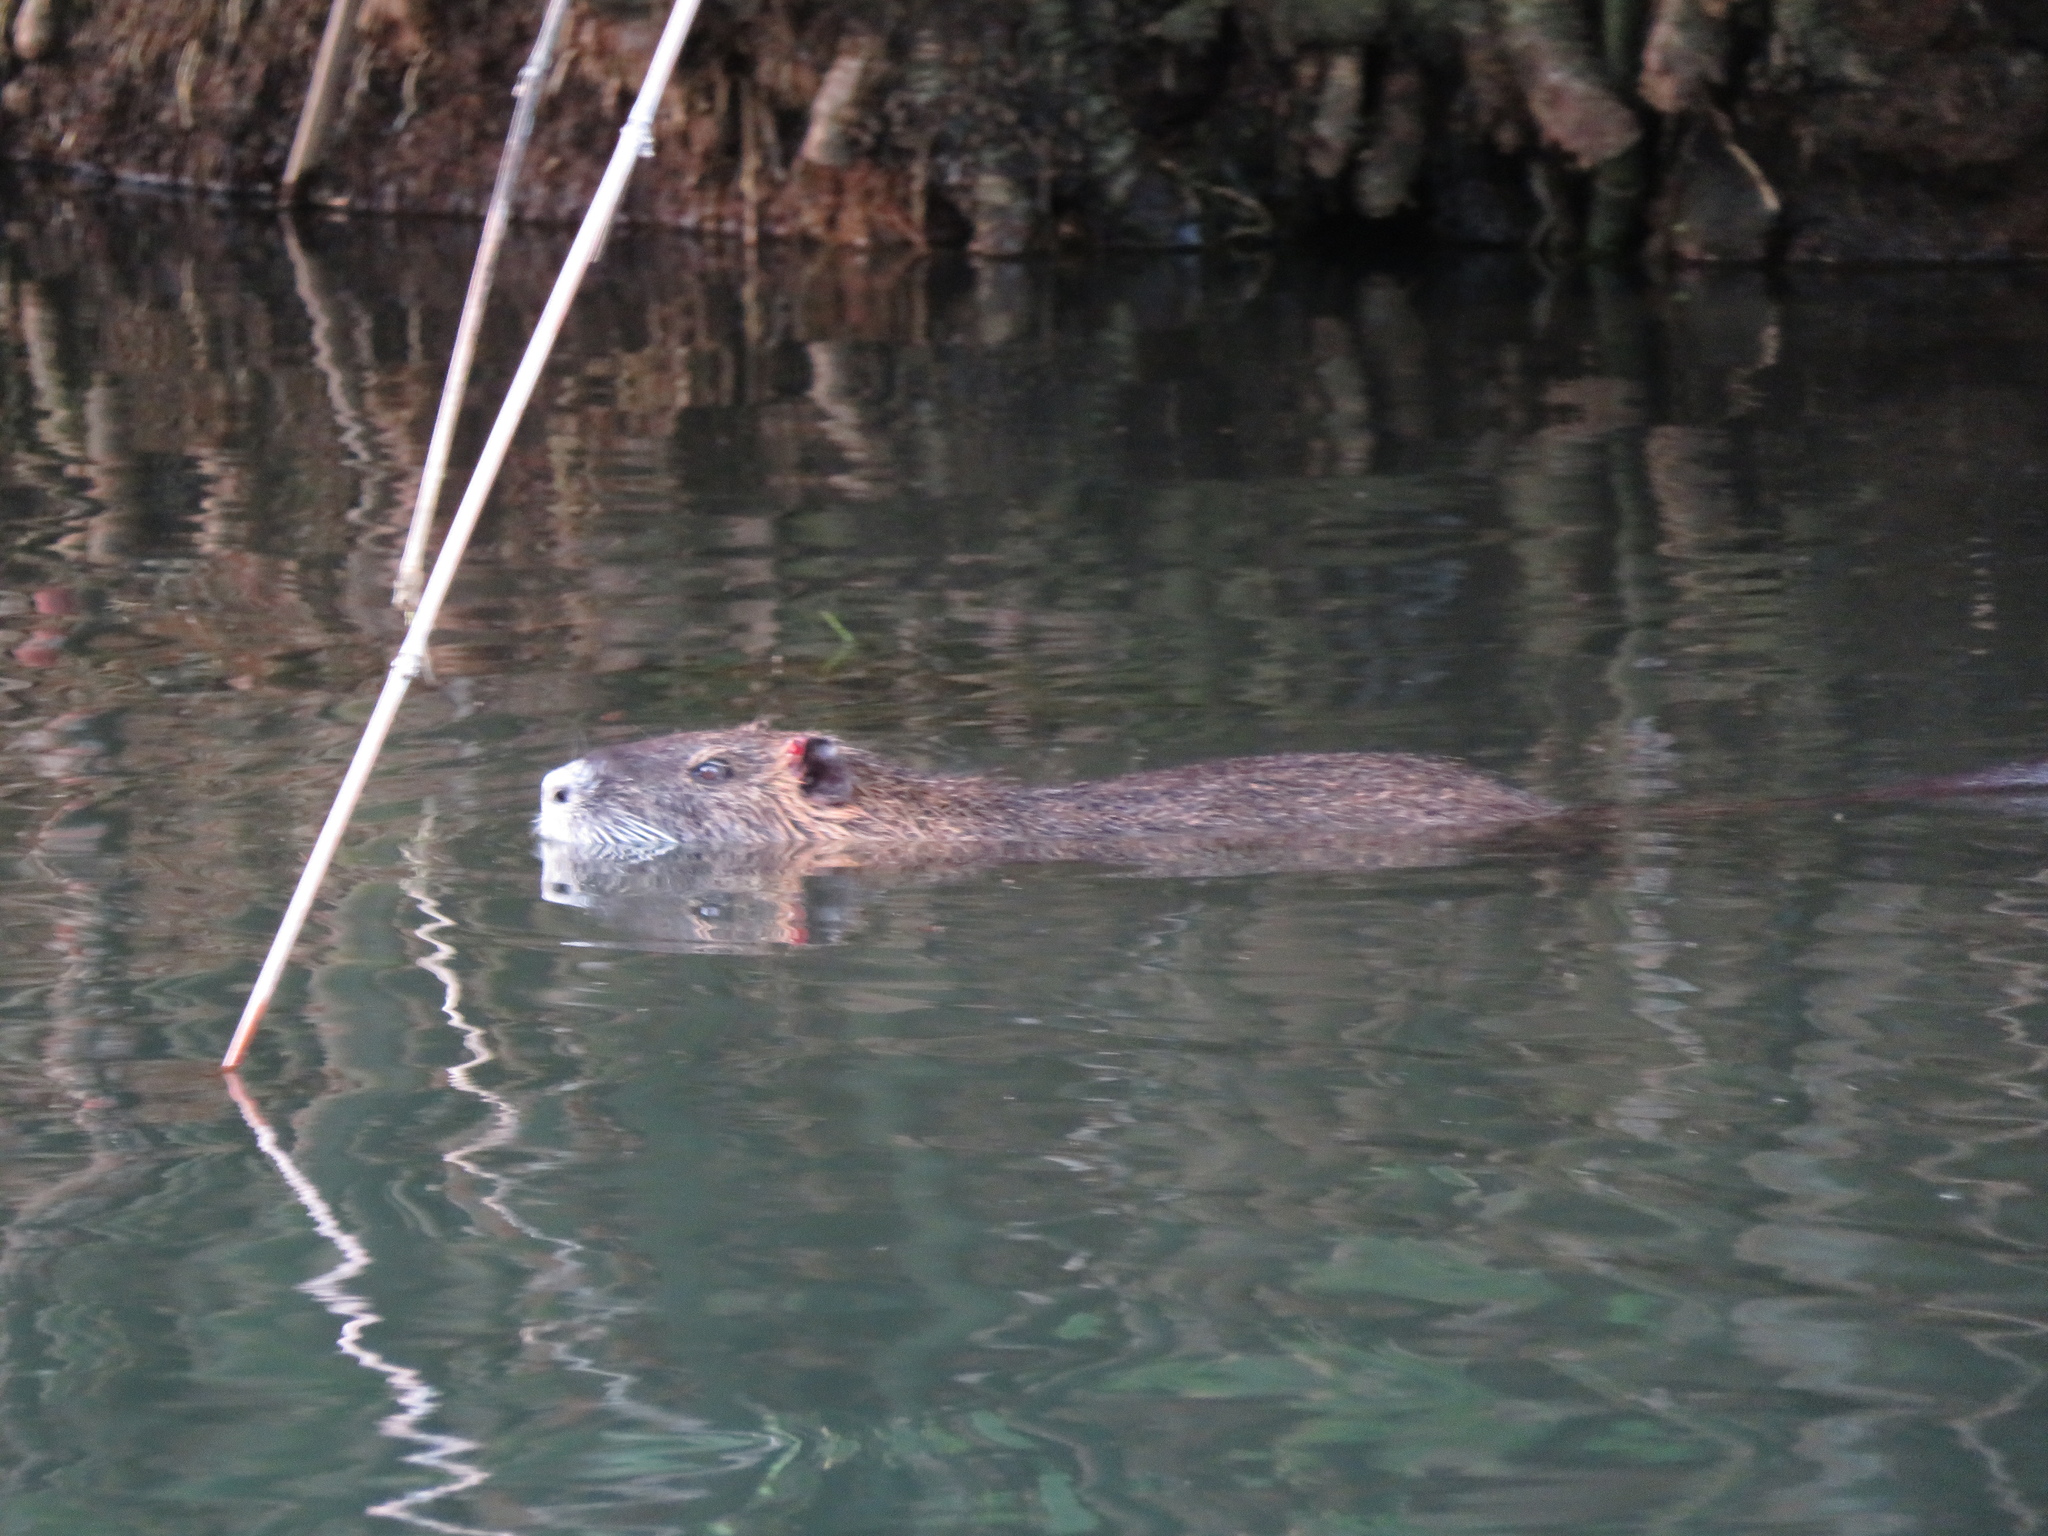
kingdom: Animalia
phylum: Chordata
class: Mammalia
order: Rodentia
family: Myocastoridae
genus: Myocastor
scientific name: Myocastor coypus
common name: Coypu
